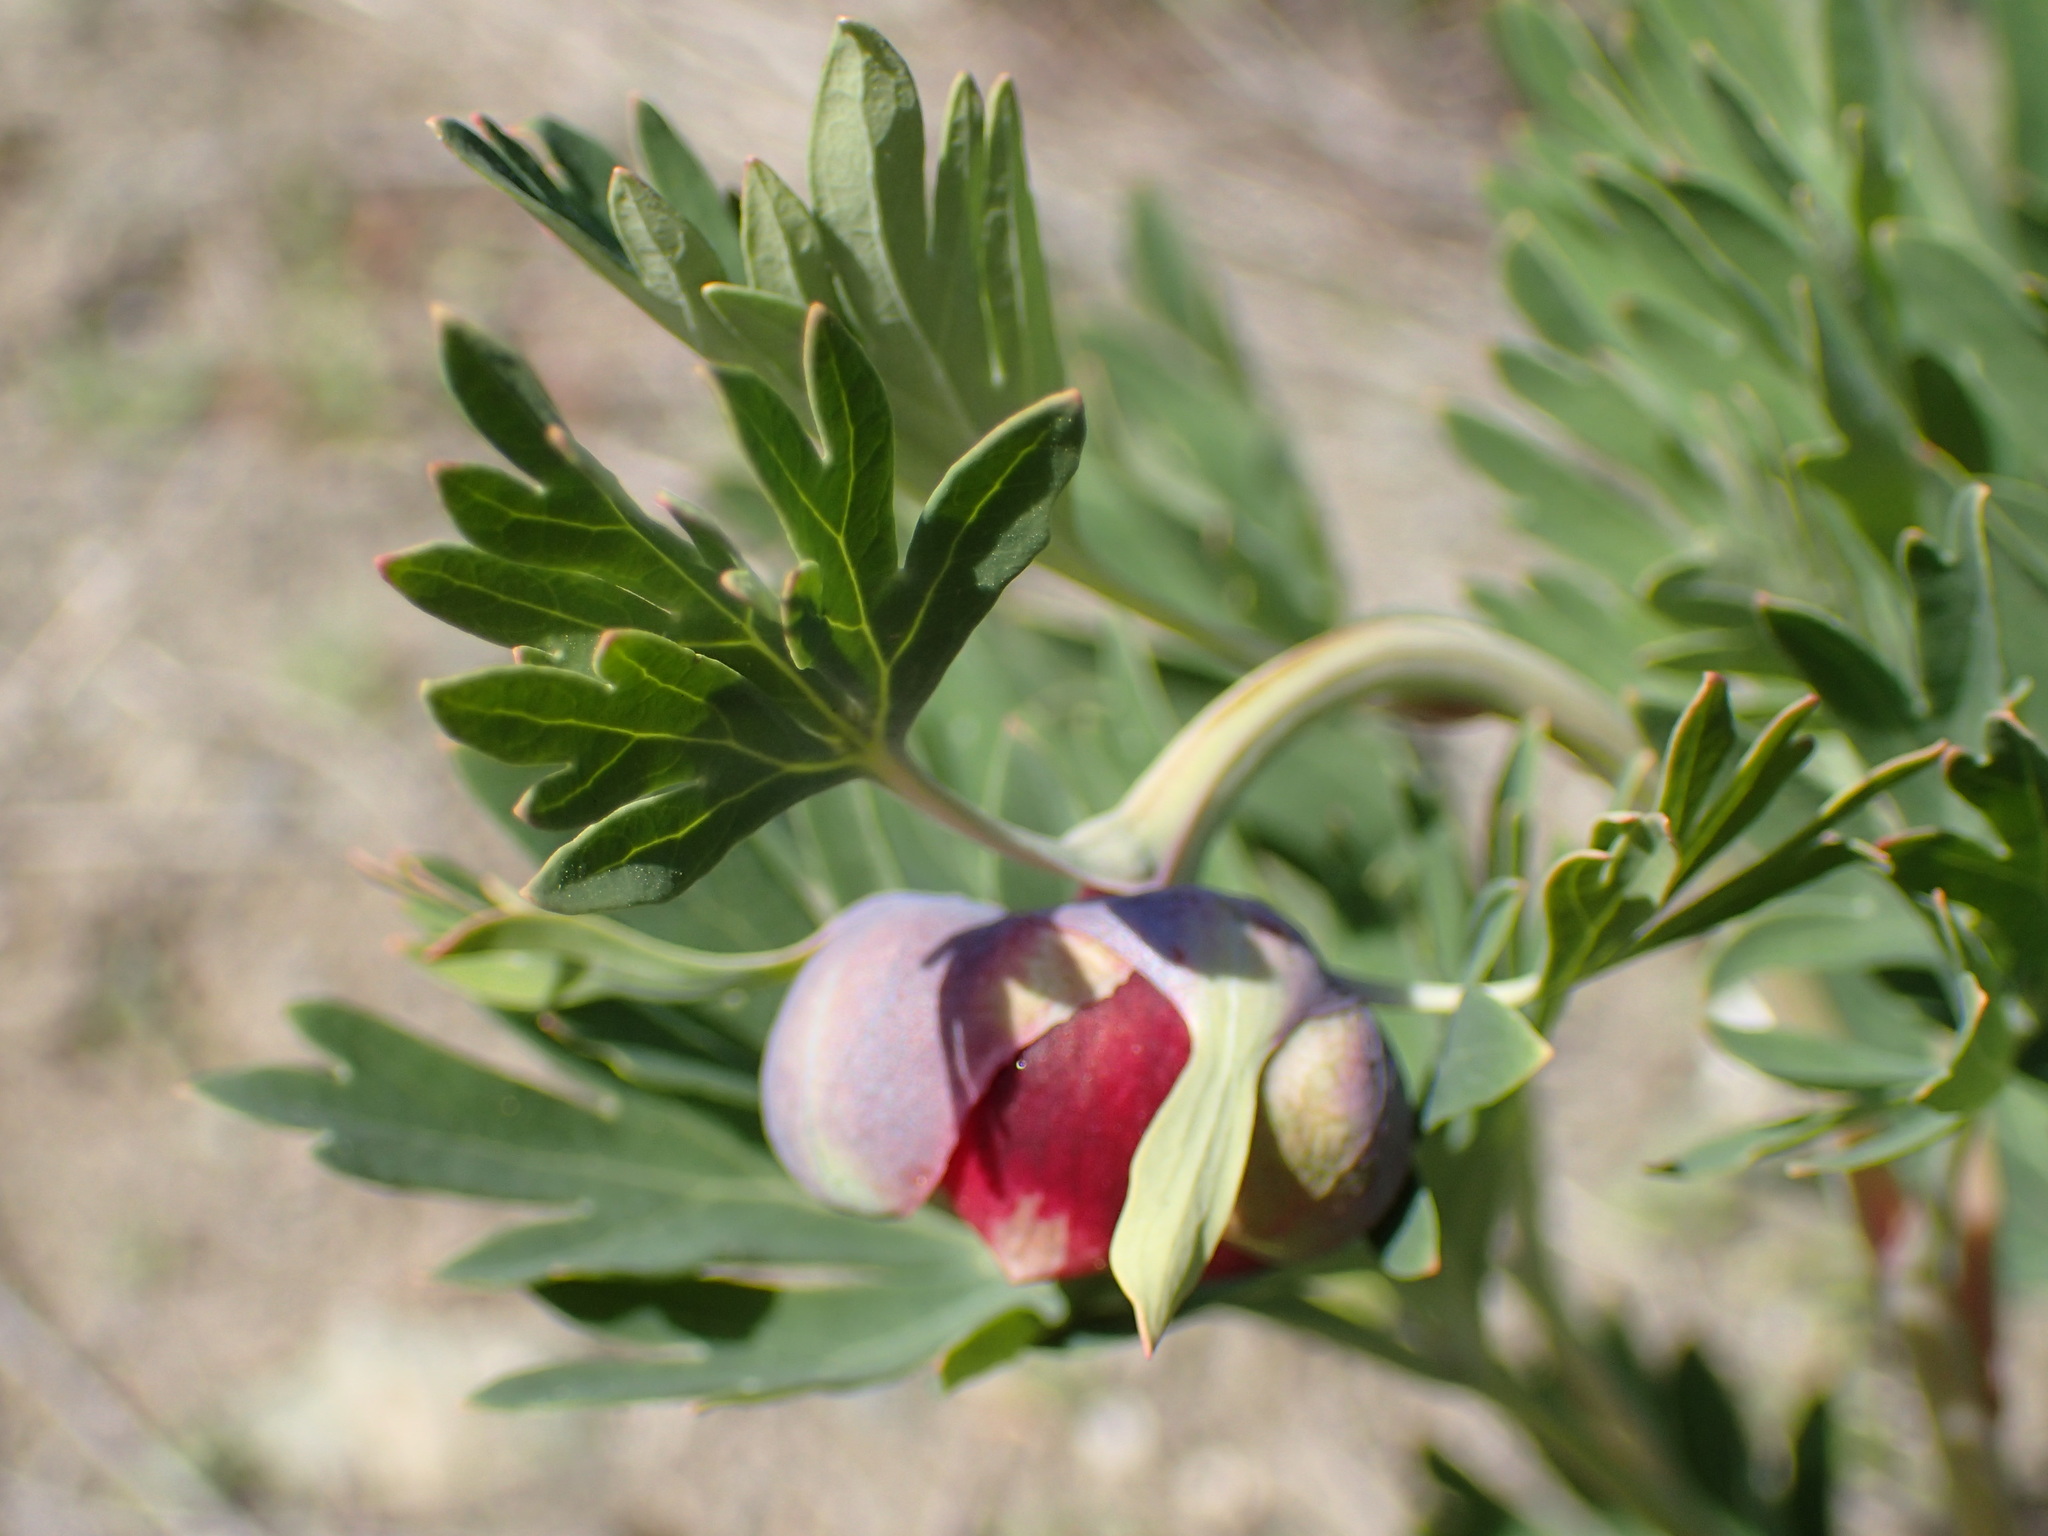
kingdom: Plantae
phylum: Tracheophyta
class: Magnoliopsida
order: Saxifragales
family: Paeoniaceae
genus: Paeonia
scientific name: Paeonia californica
